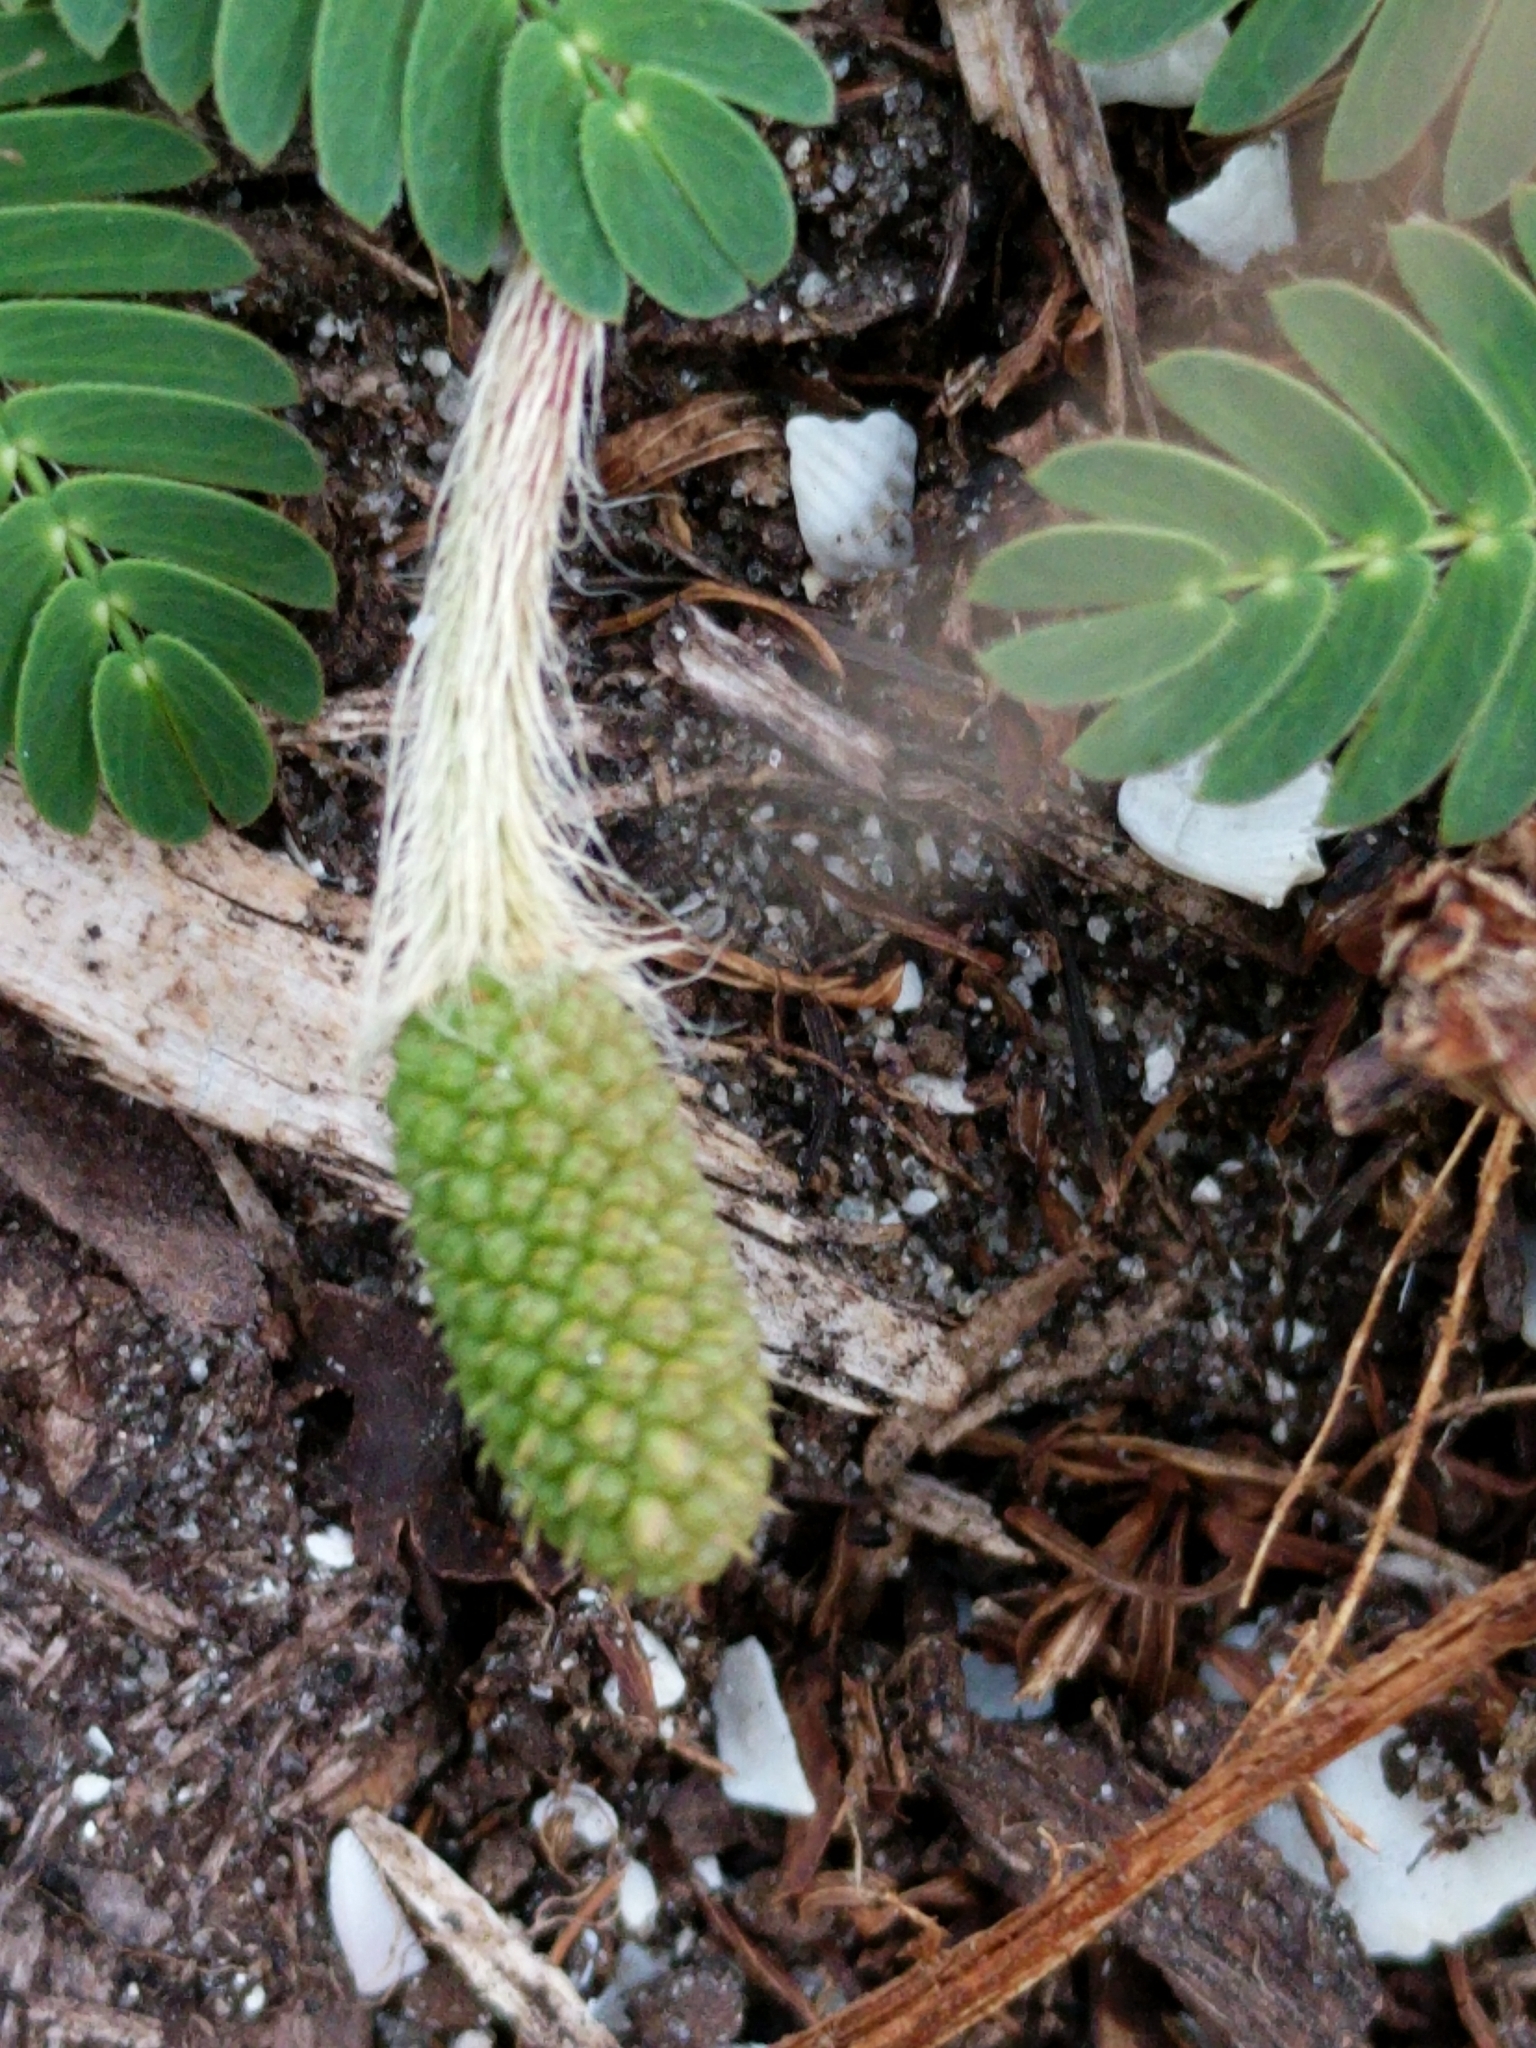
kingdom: Plantae
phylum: Tracheophyta
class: Magnoliopsida
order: Fabales
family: Fabaceae
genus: Mimosa
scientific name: Mimosa strigillosa
